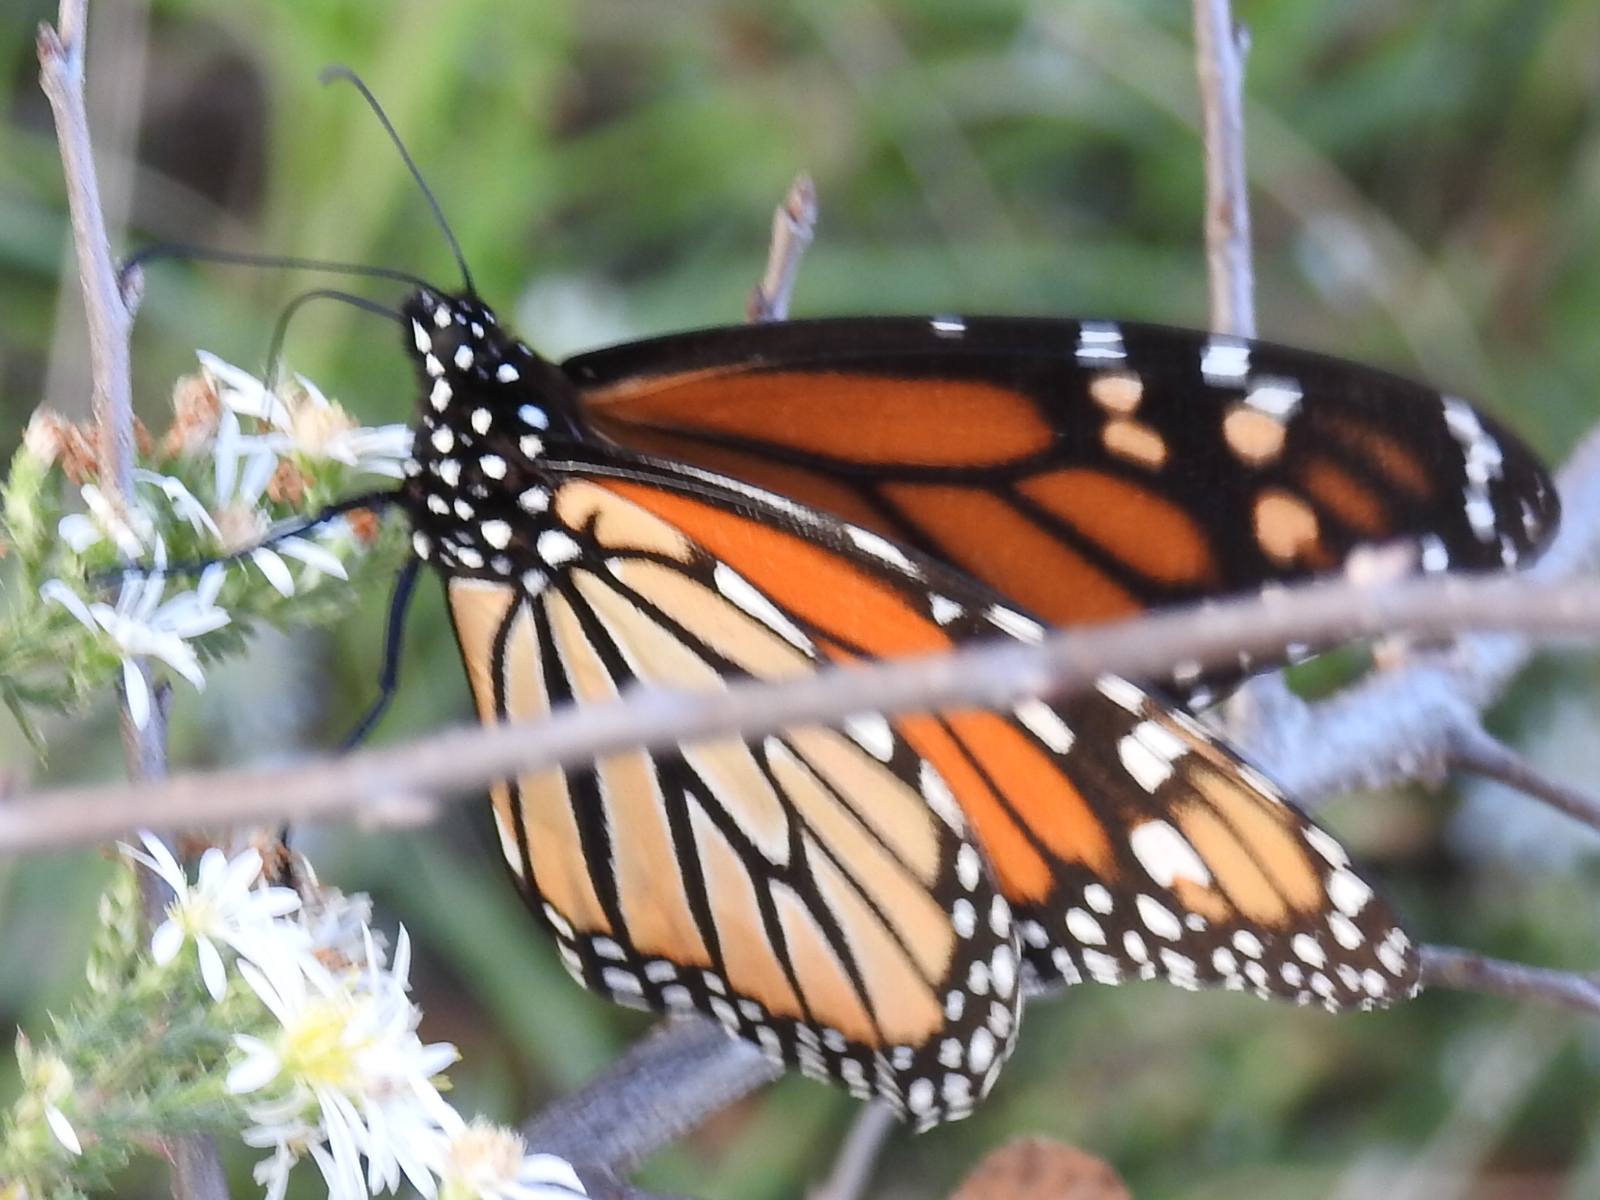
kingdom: Animalia
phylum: Arthropoda
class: Insecta
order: Lepidoptera
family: Nymphalidae
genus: Danaus
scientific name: Danaus plexippus
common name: Monarch
